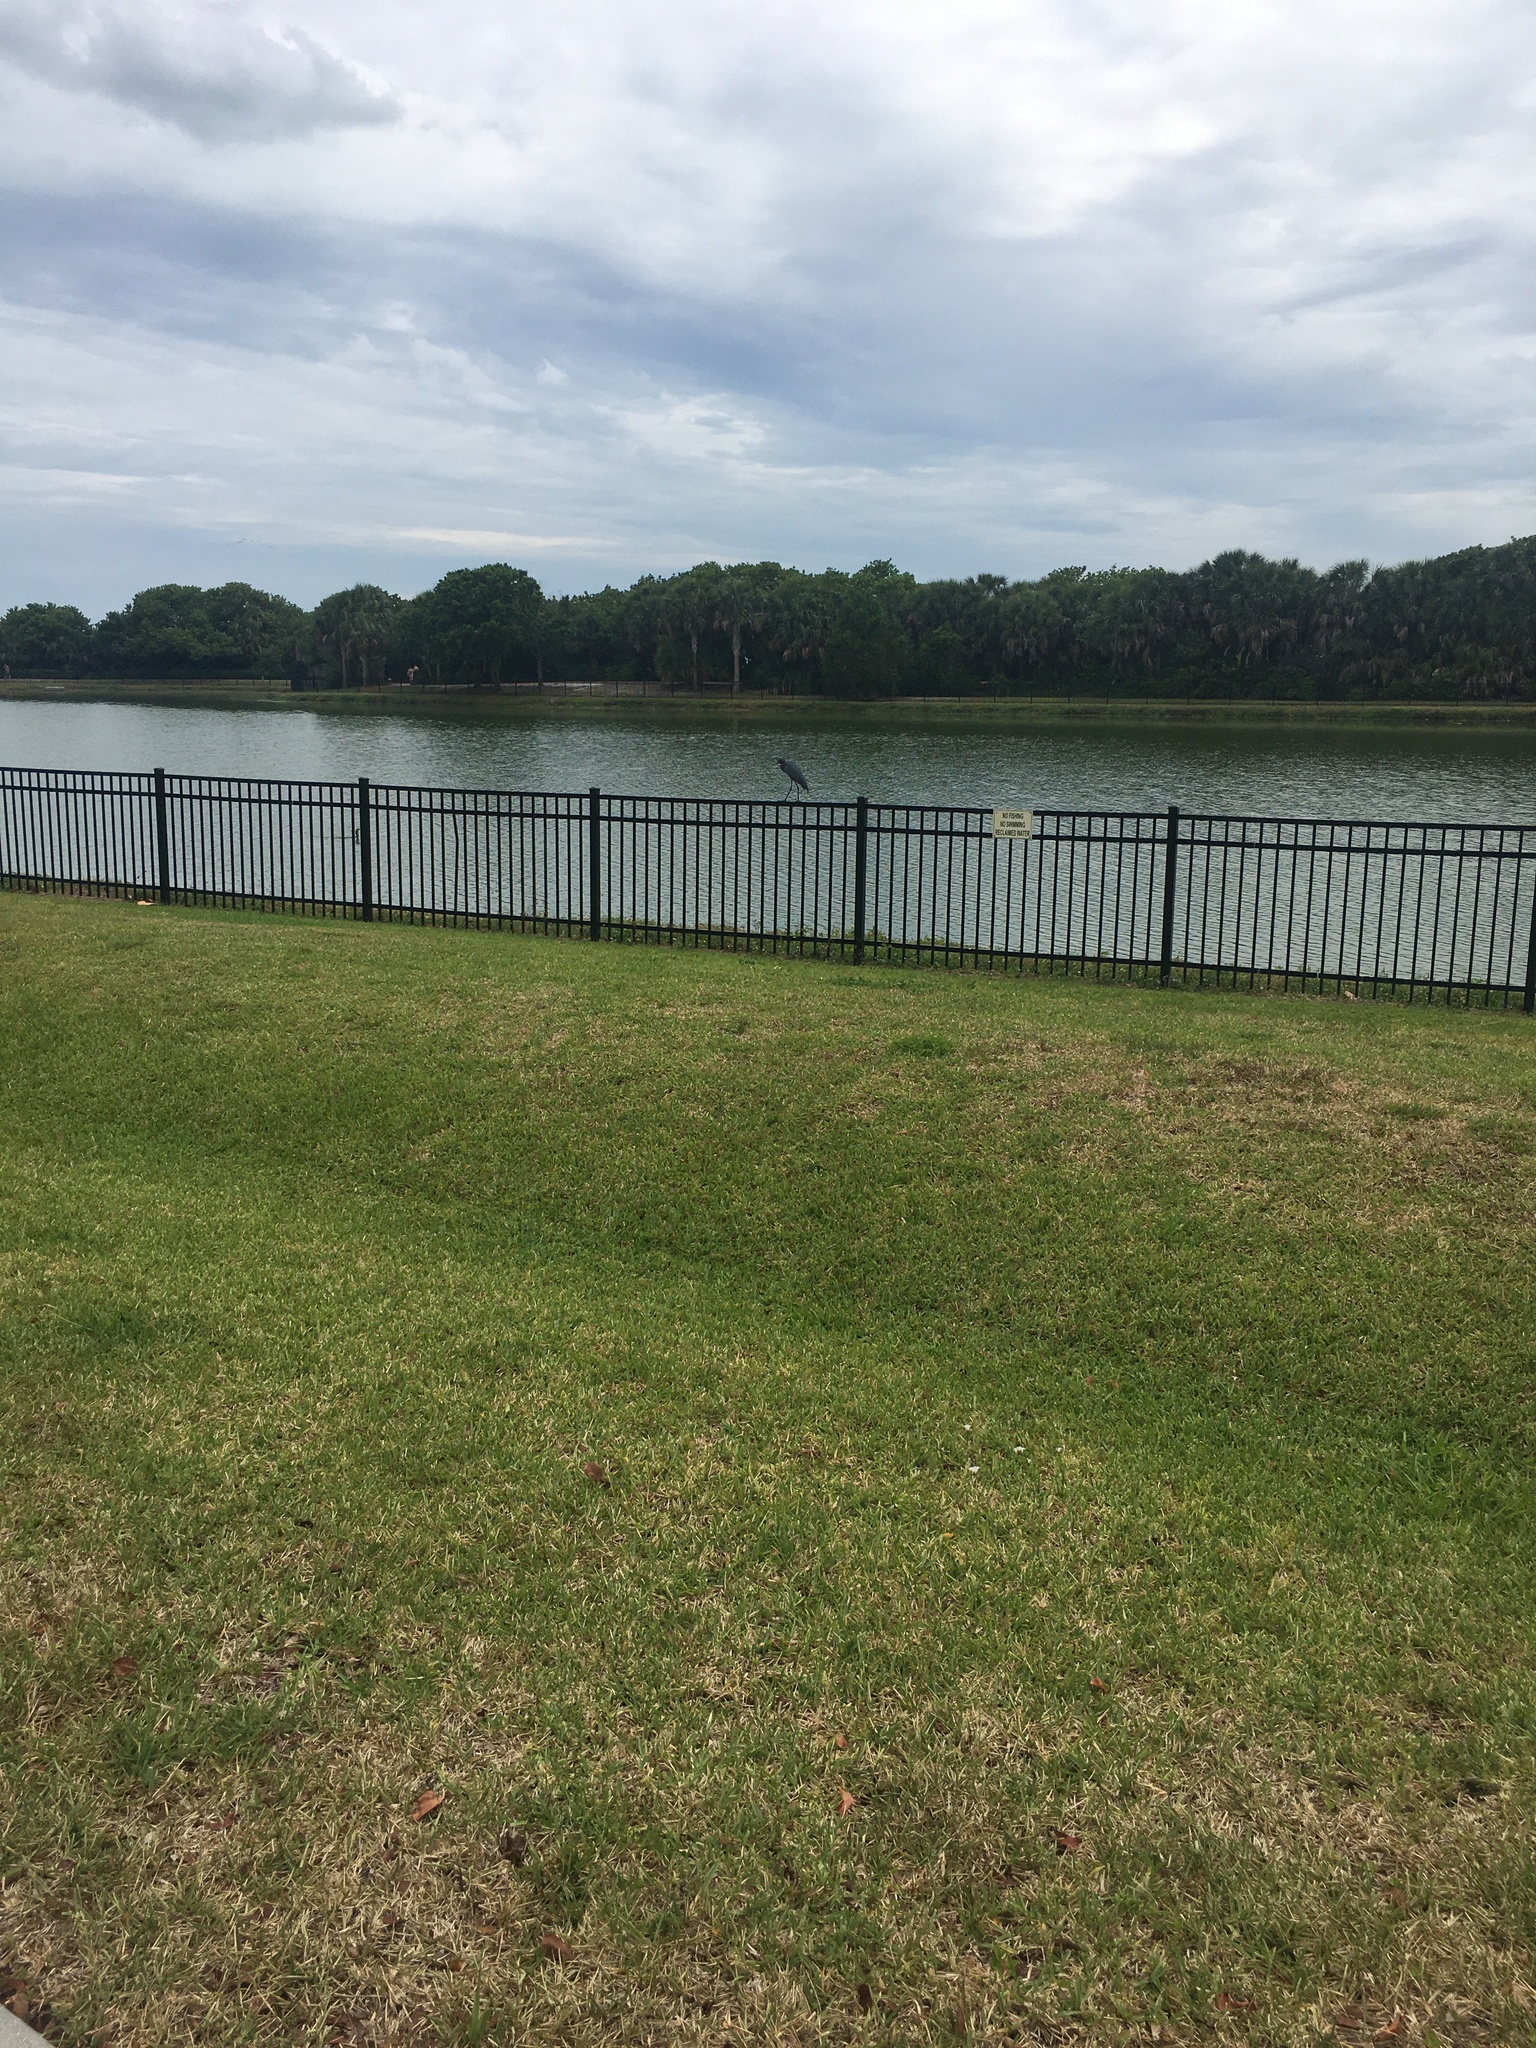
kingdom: Animalia
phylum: Chordata
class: Aves
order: Pelecaniformes
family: Ardeidae
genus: Egretta
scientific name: Egretta caerulea
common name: Little blue heron
